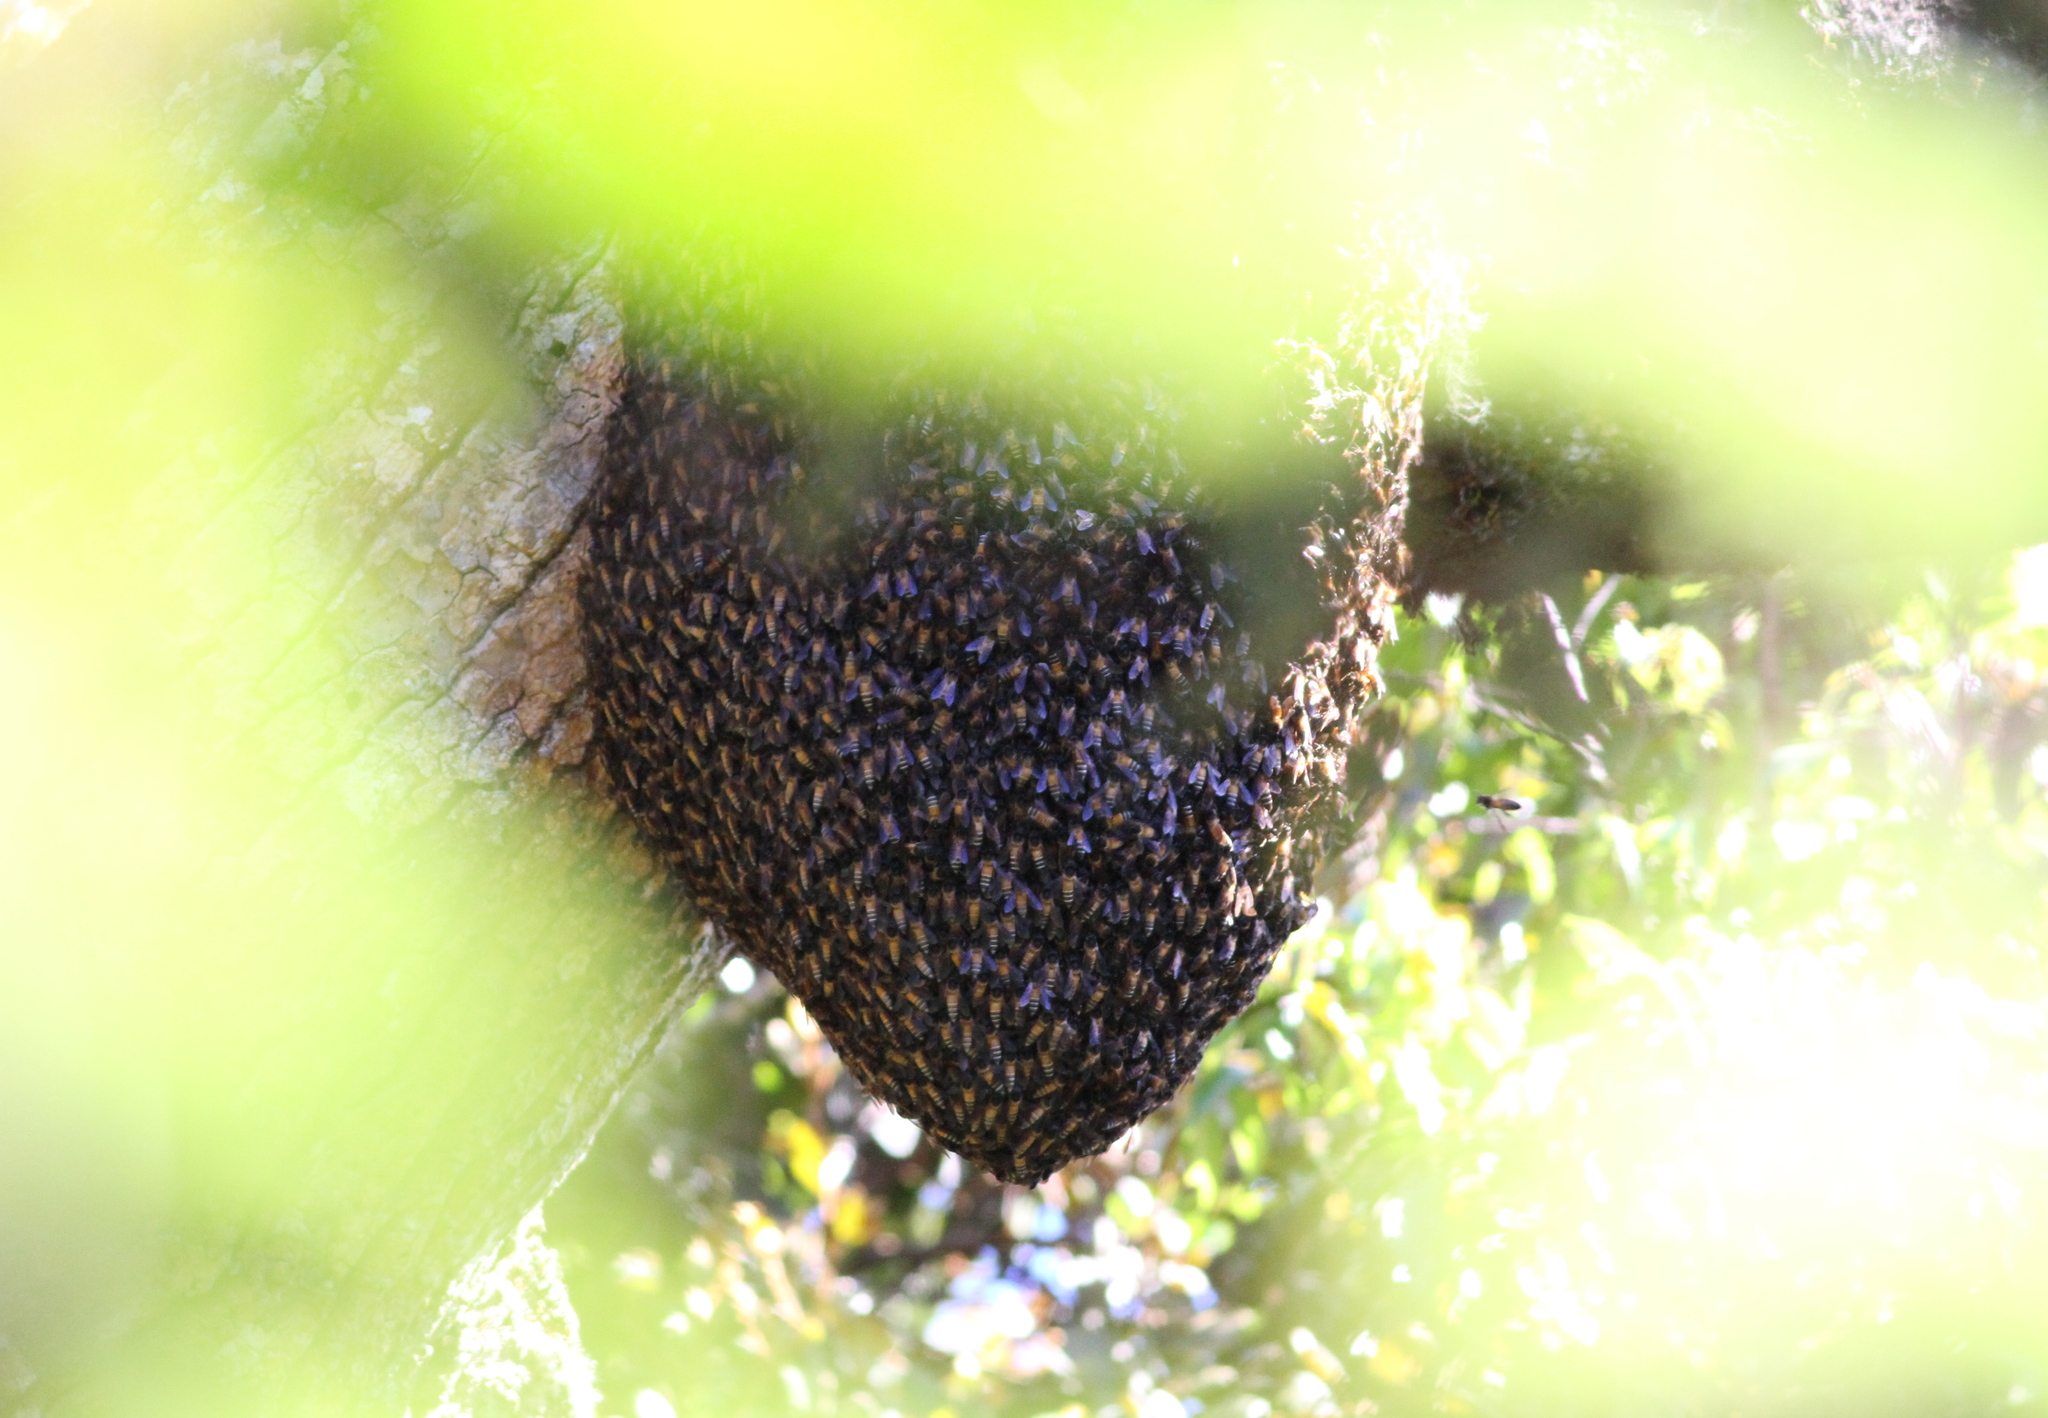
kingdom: Animalia
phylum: Arthropoda
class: Insecta
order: Hymenoptera
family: Apidae
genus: Apis
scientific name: Apis dorsata
